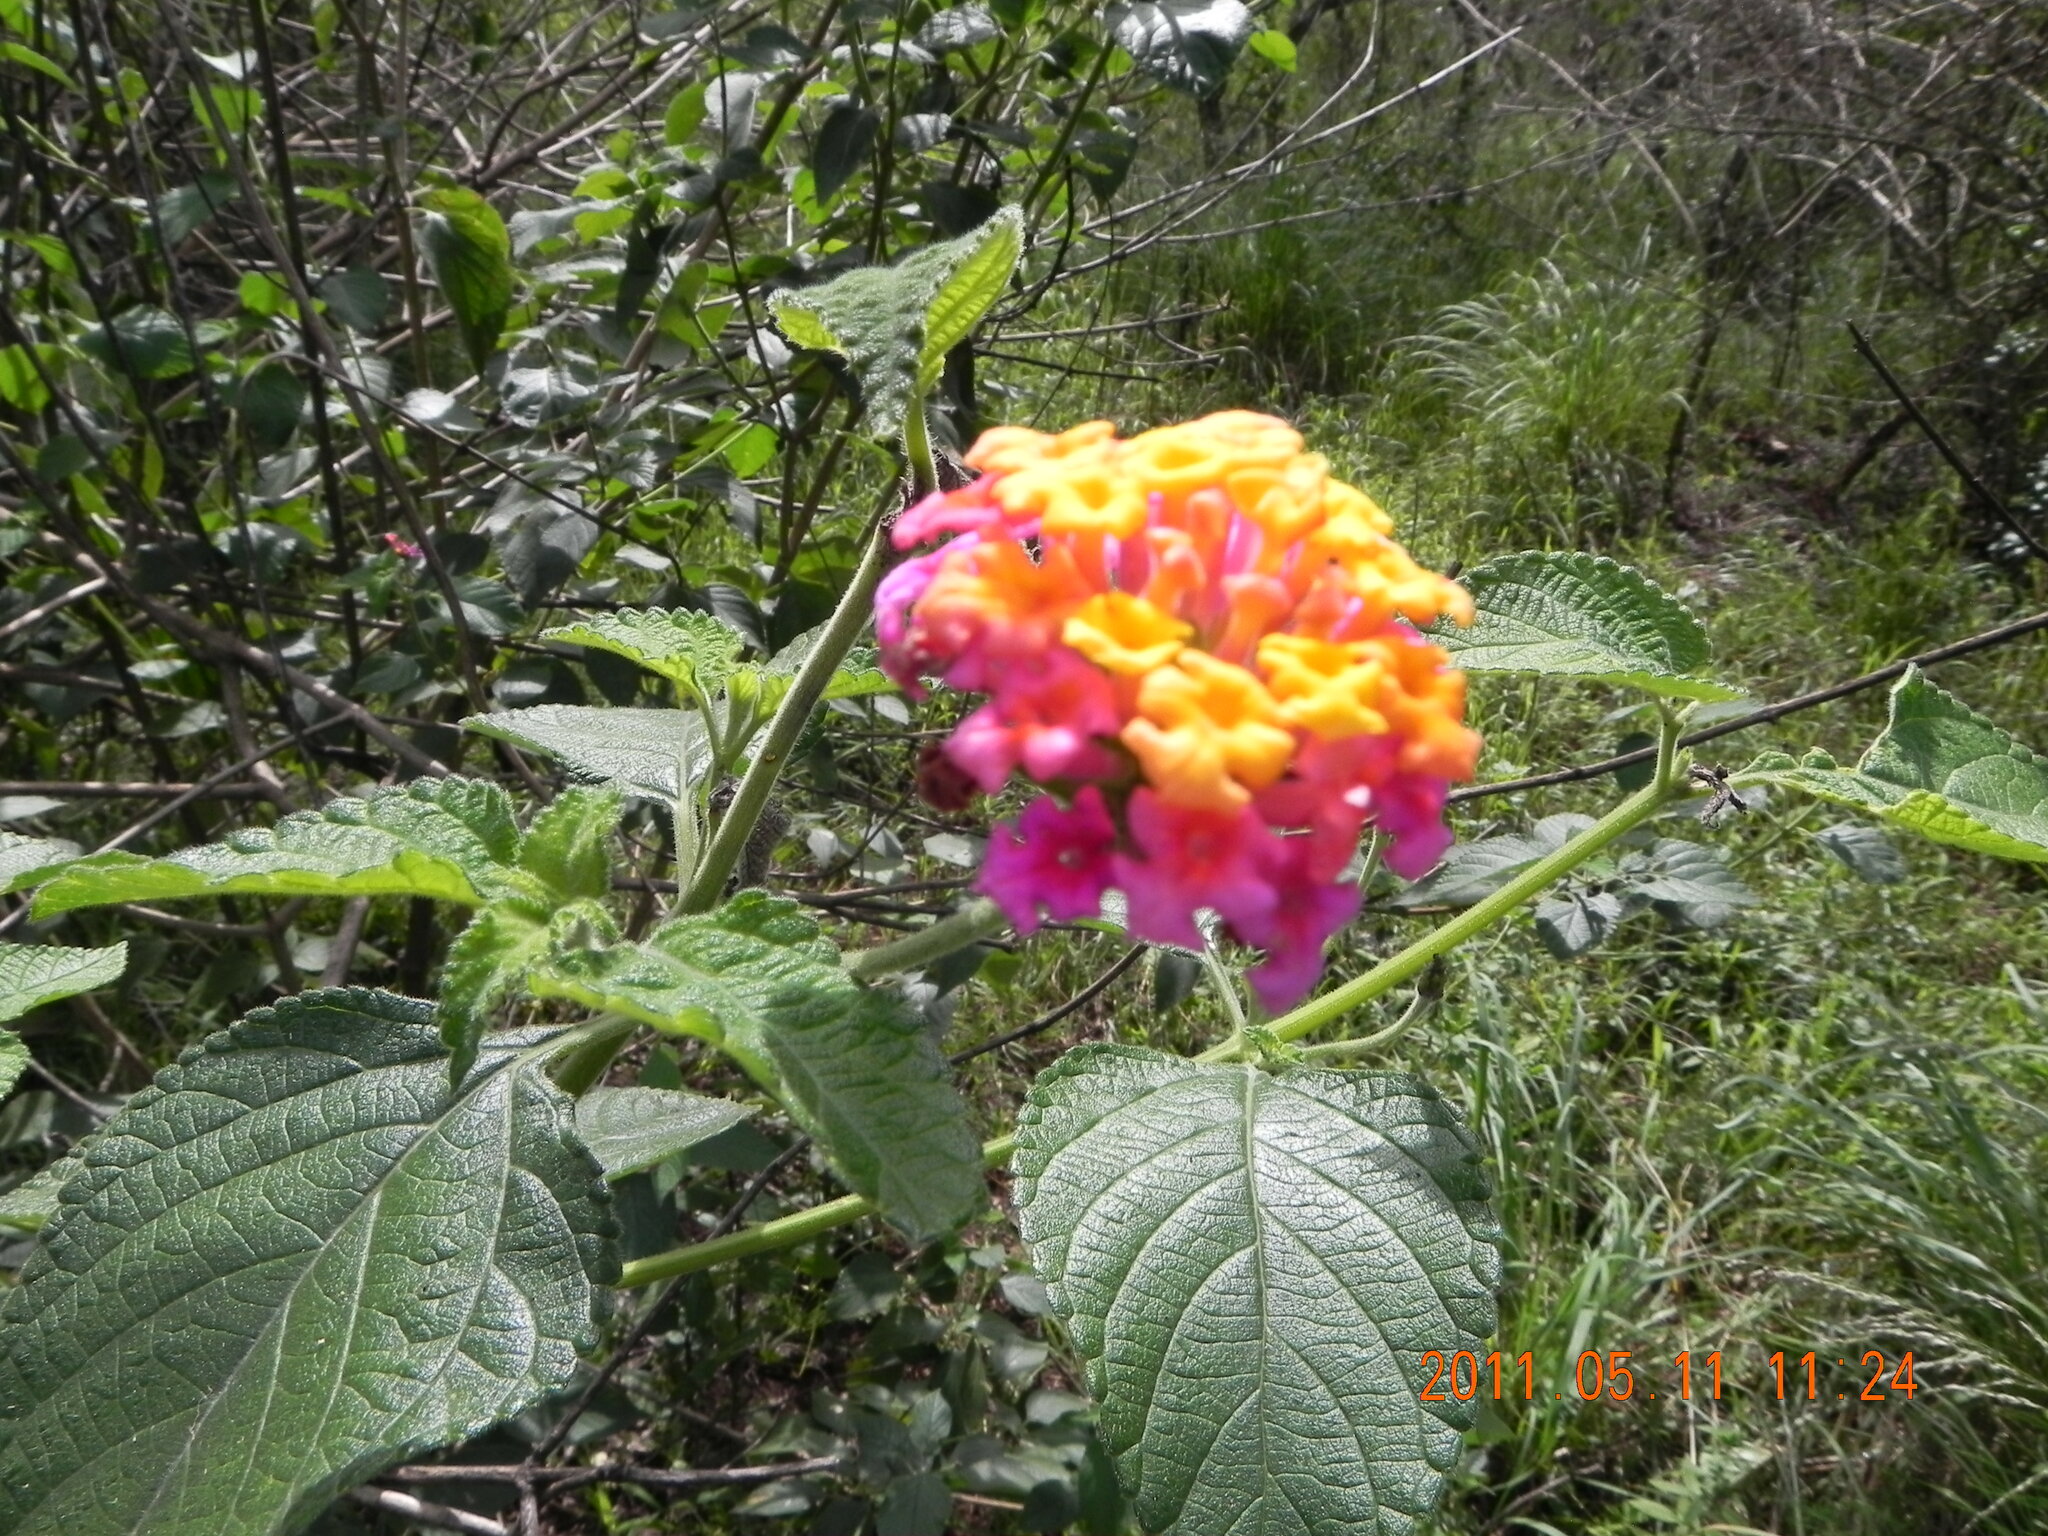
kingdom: Plantae
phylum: Tracheophyta
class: Magnoliopsida
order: Lamiales
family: Verbenaceae
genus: Lantana
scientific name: Lantana camara
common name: Lantana
